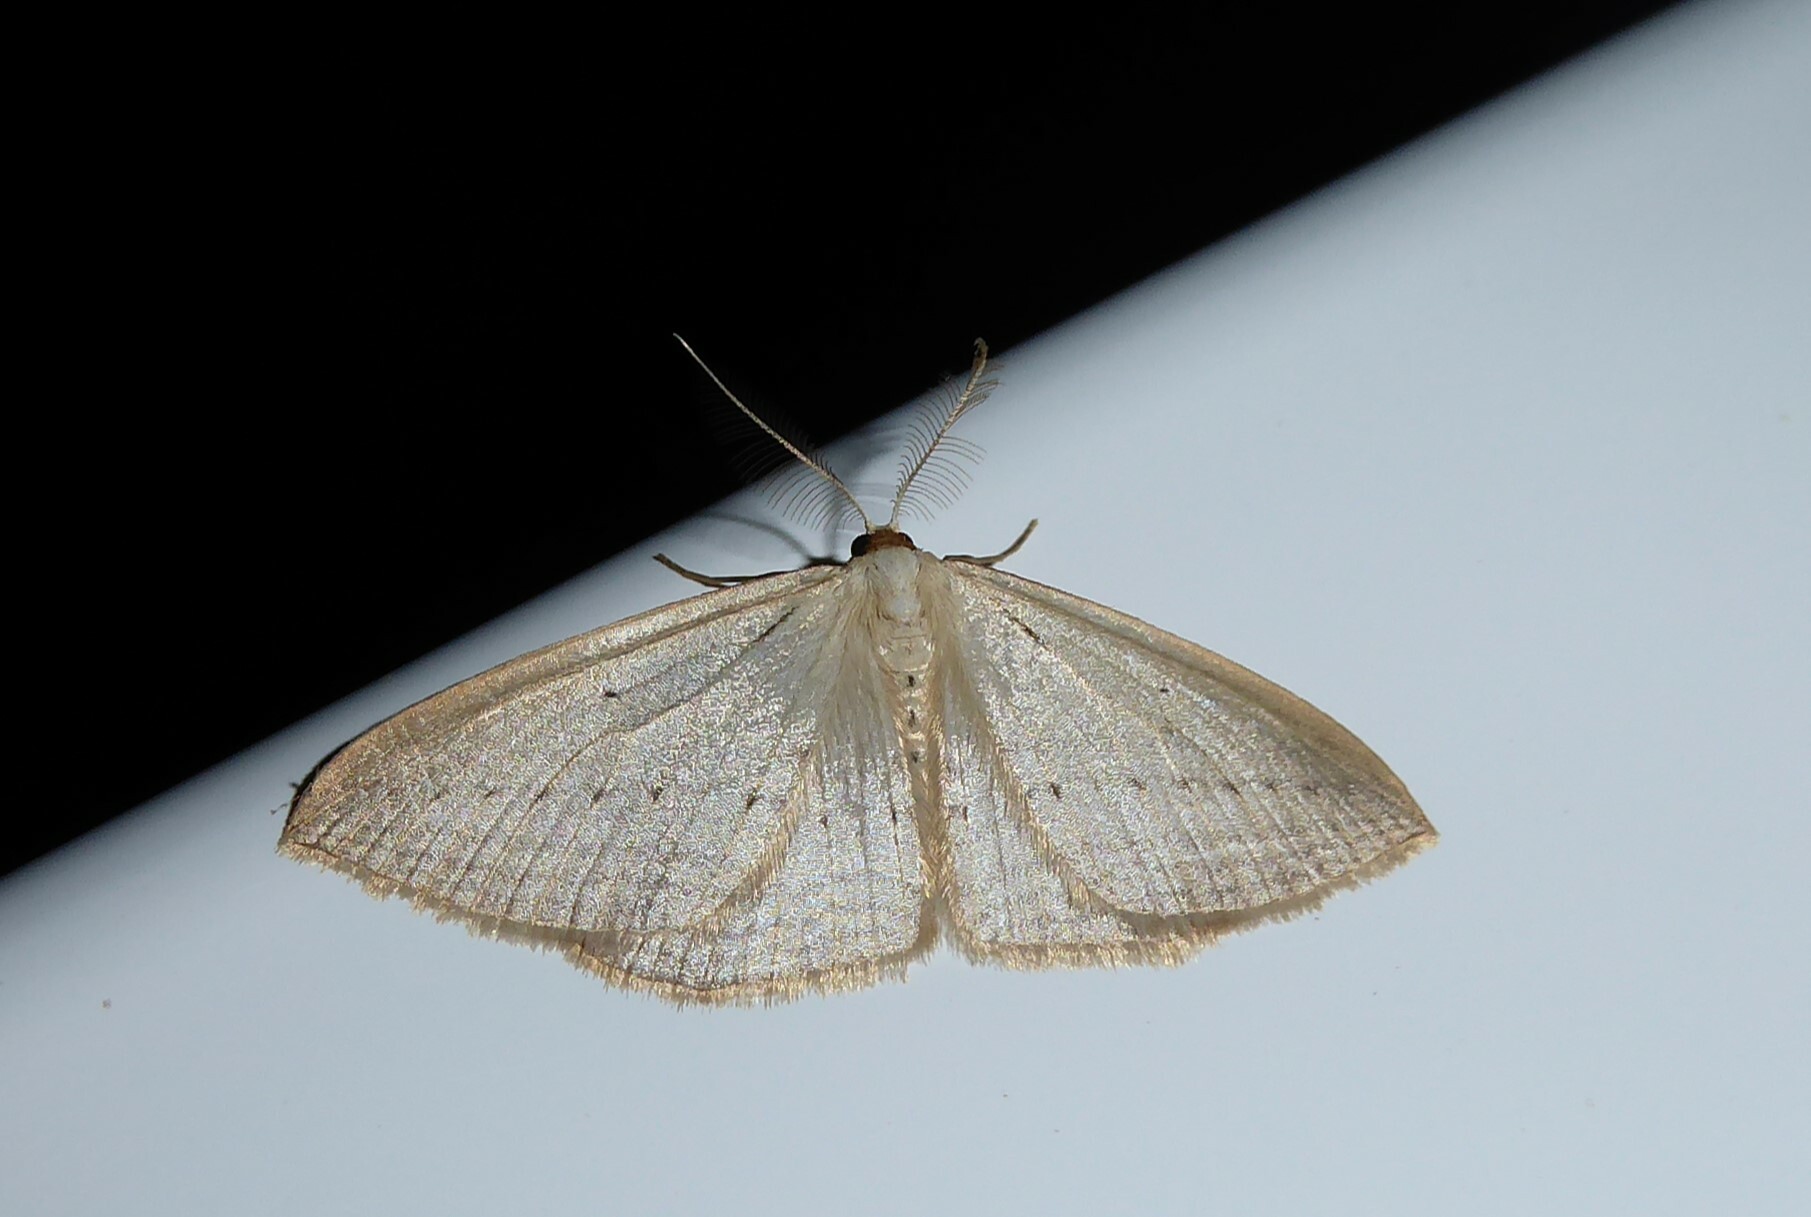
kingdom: Animalia
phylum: Arthropoda
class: Insecta
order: Lepidoptera
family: Geometridae
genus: Orthoclydon
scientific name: Orthoclydon praefectata
